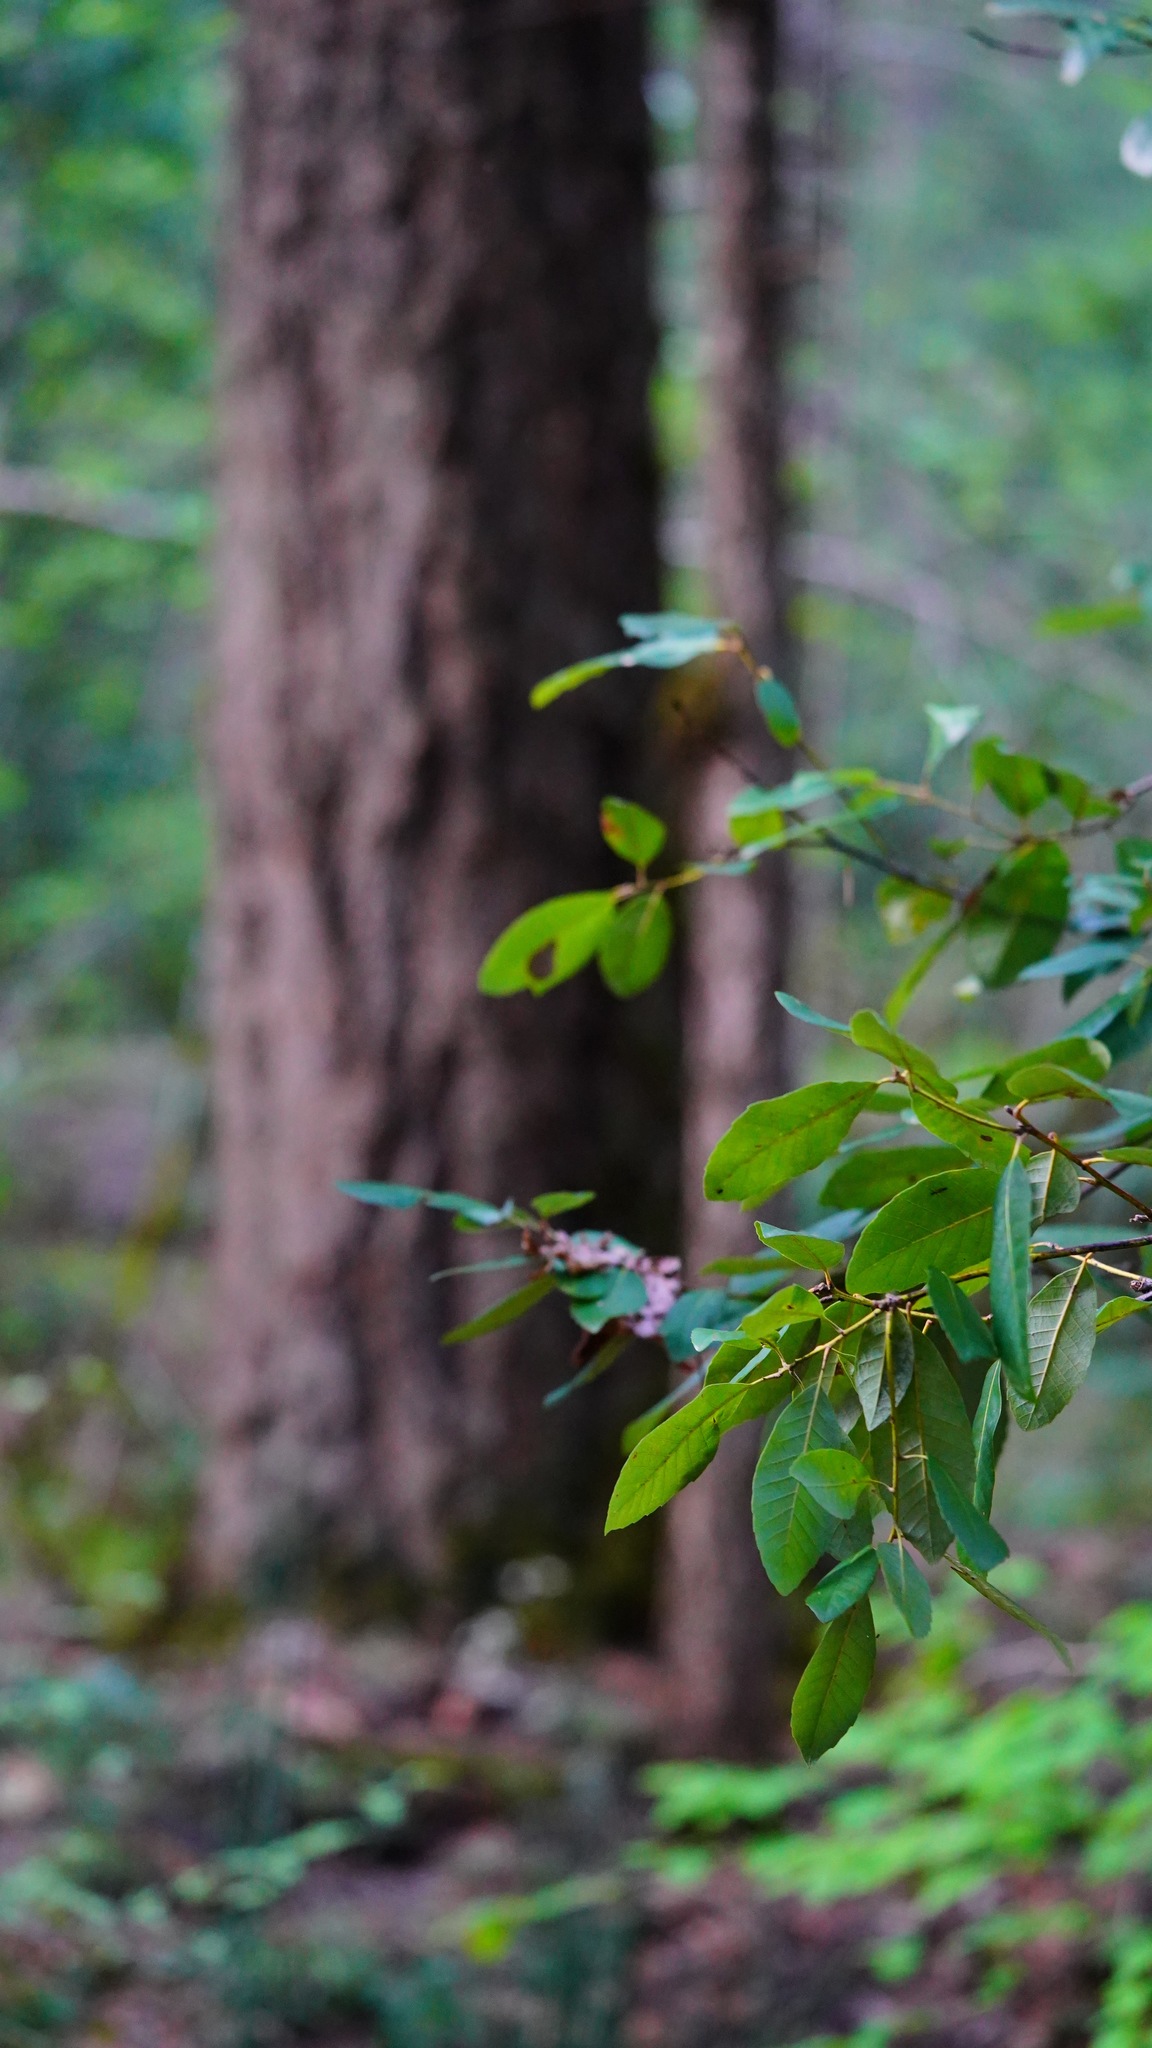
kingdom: Plantae
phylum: Tracheophyta
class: Magnoliopsida
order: Fagales
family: Fagaceae
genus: Notholithocarpus
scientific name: Notholithocarpus densiflorus
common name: Tan bark oak
